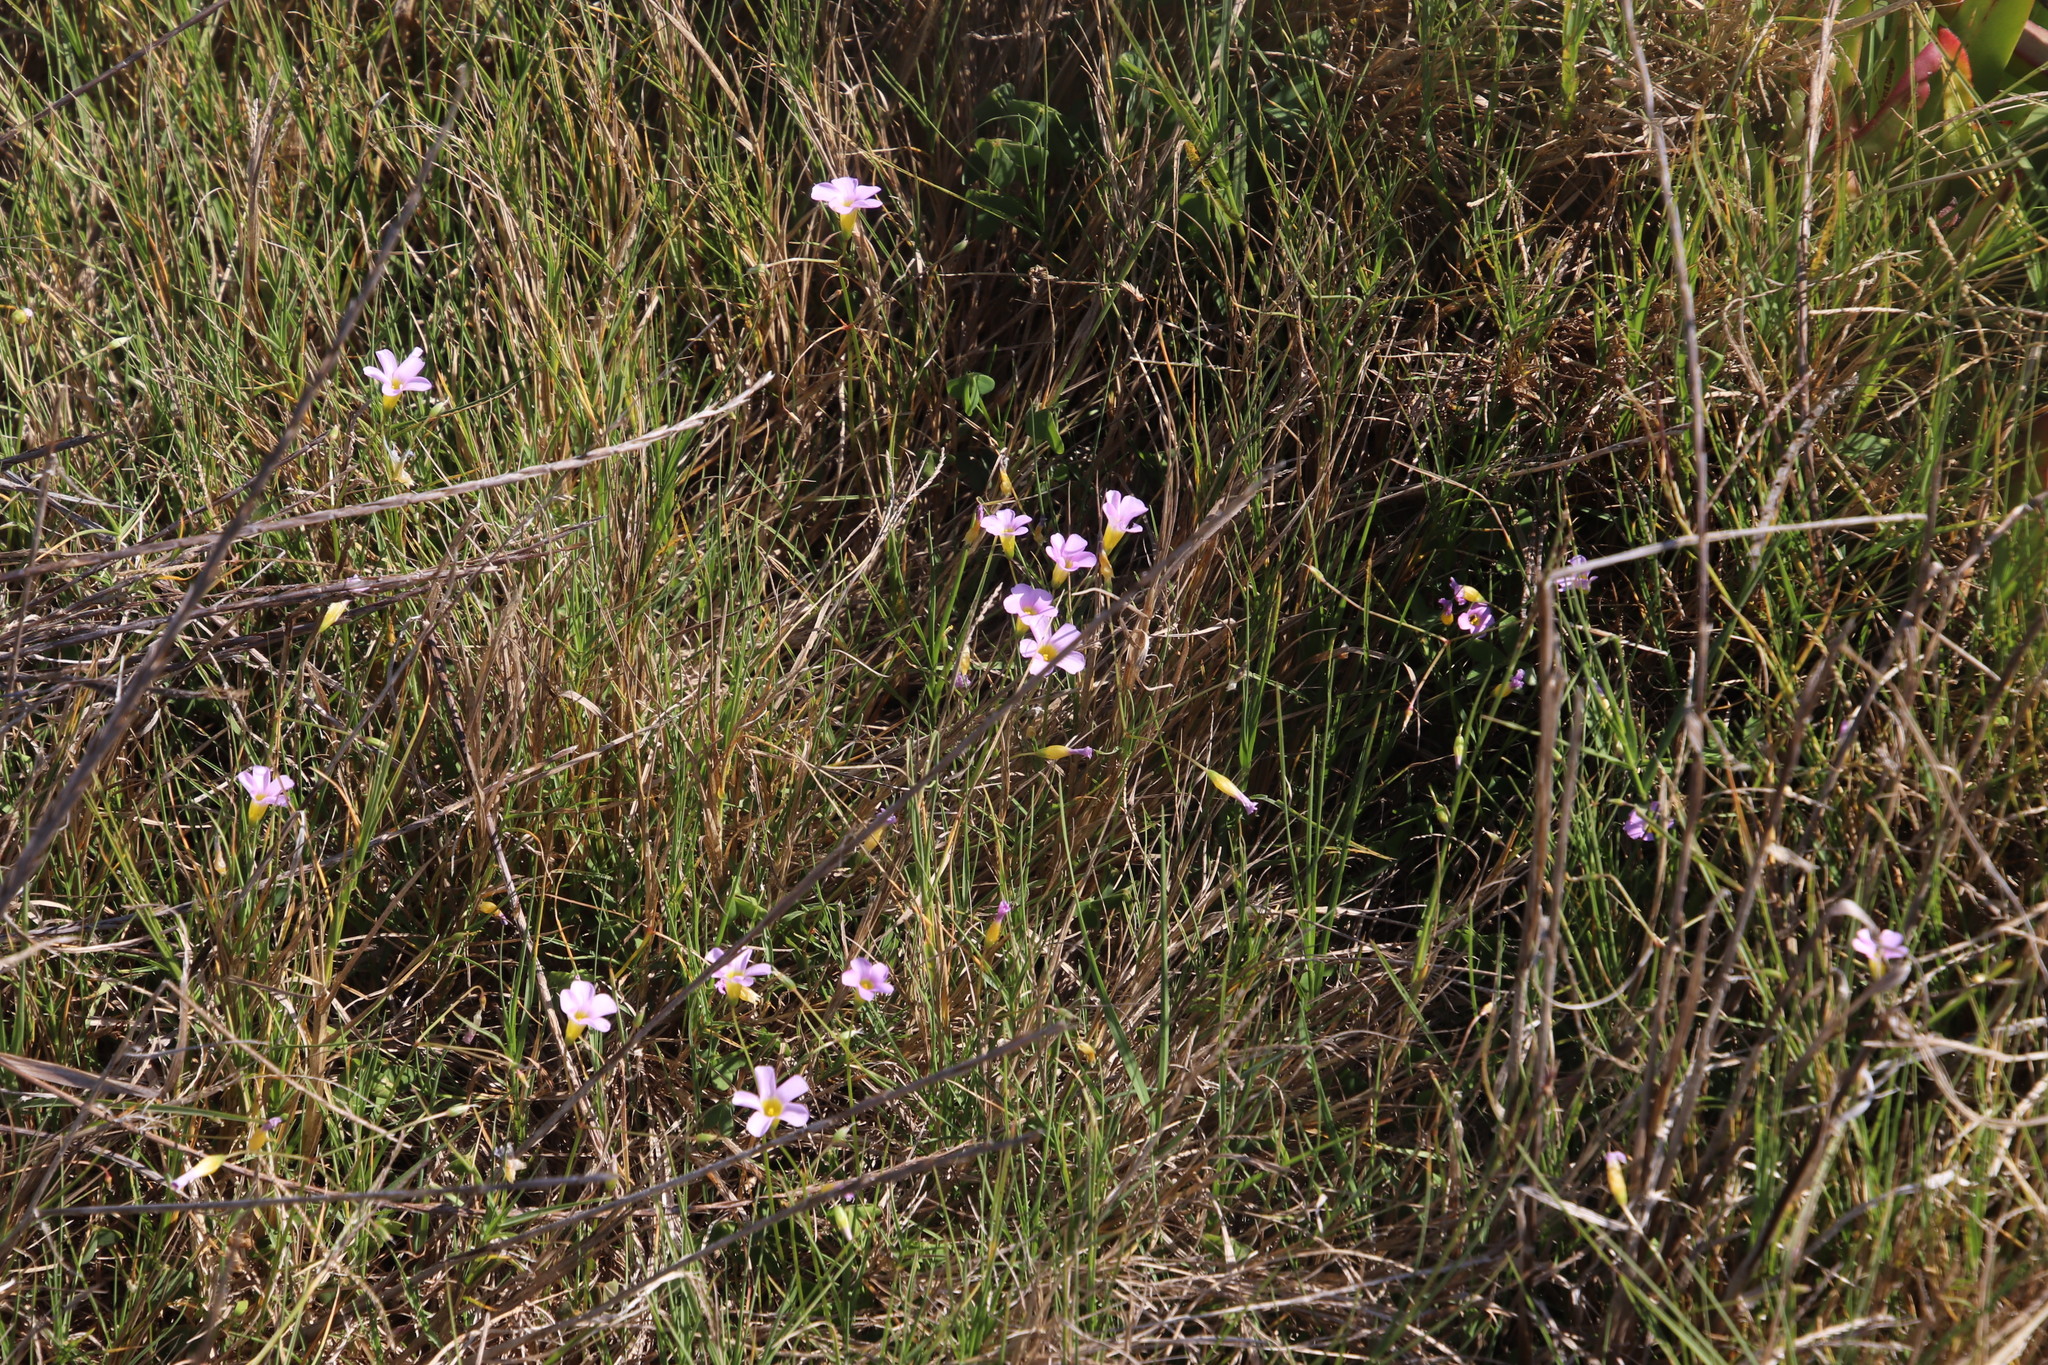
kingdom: Plantae
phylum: Tracheophyta
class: Magnoliopsida
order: Oxalidales
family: Oxalidaceae
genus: Oxalis
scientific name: Oxalis caprina
